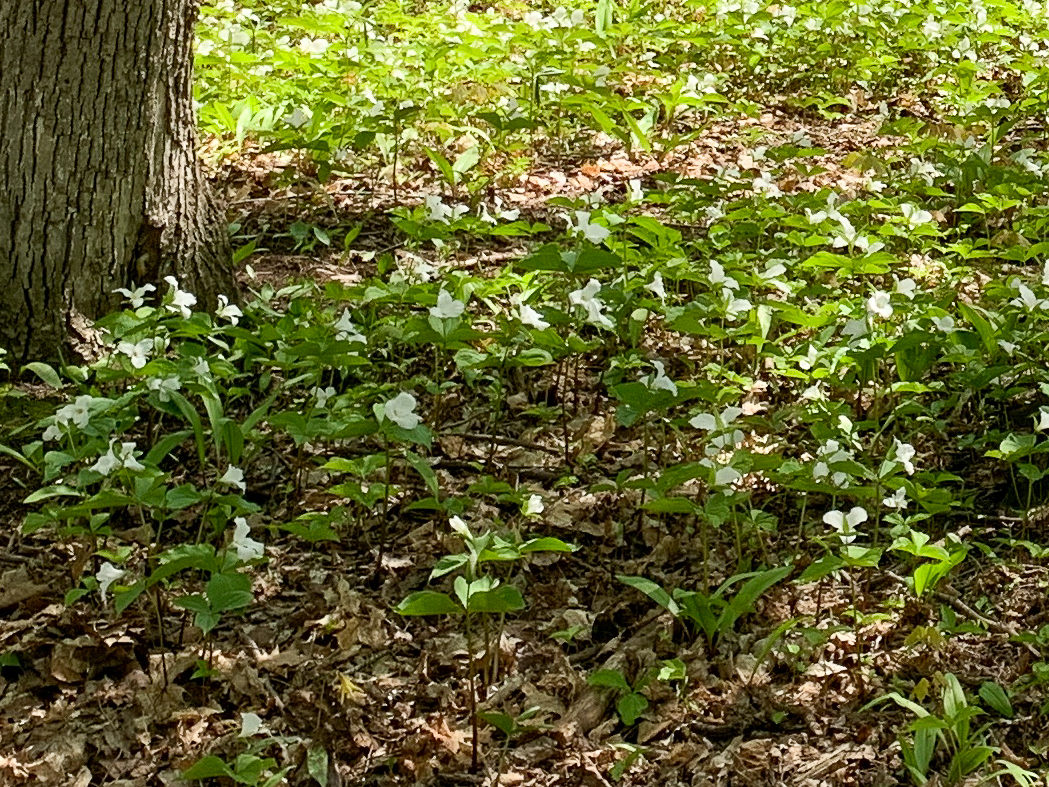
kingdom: Plantae
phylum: Tracheophyta
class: Liliopsida
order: Liliales
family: Melanthiaceae
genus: Trillium
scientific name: Trillium grandiflorum
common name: Great white trillium
